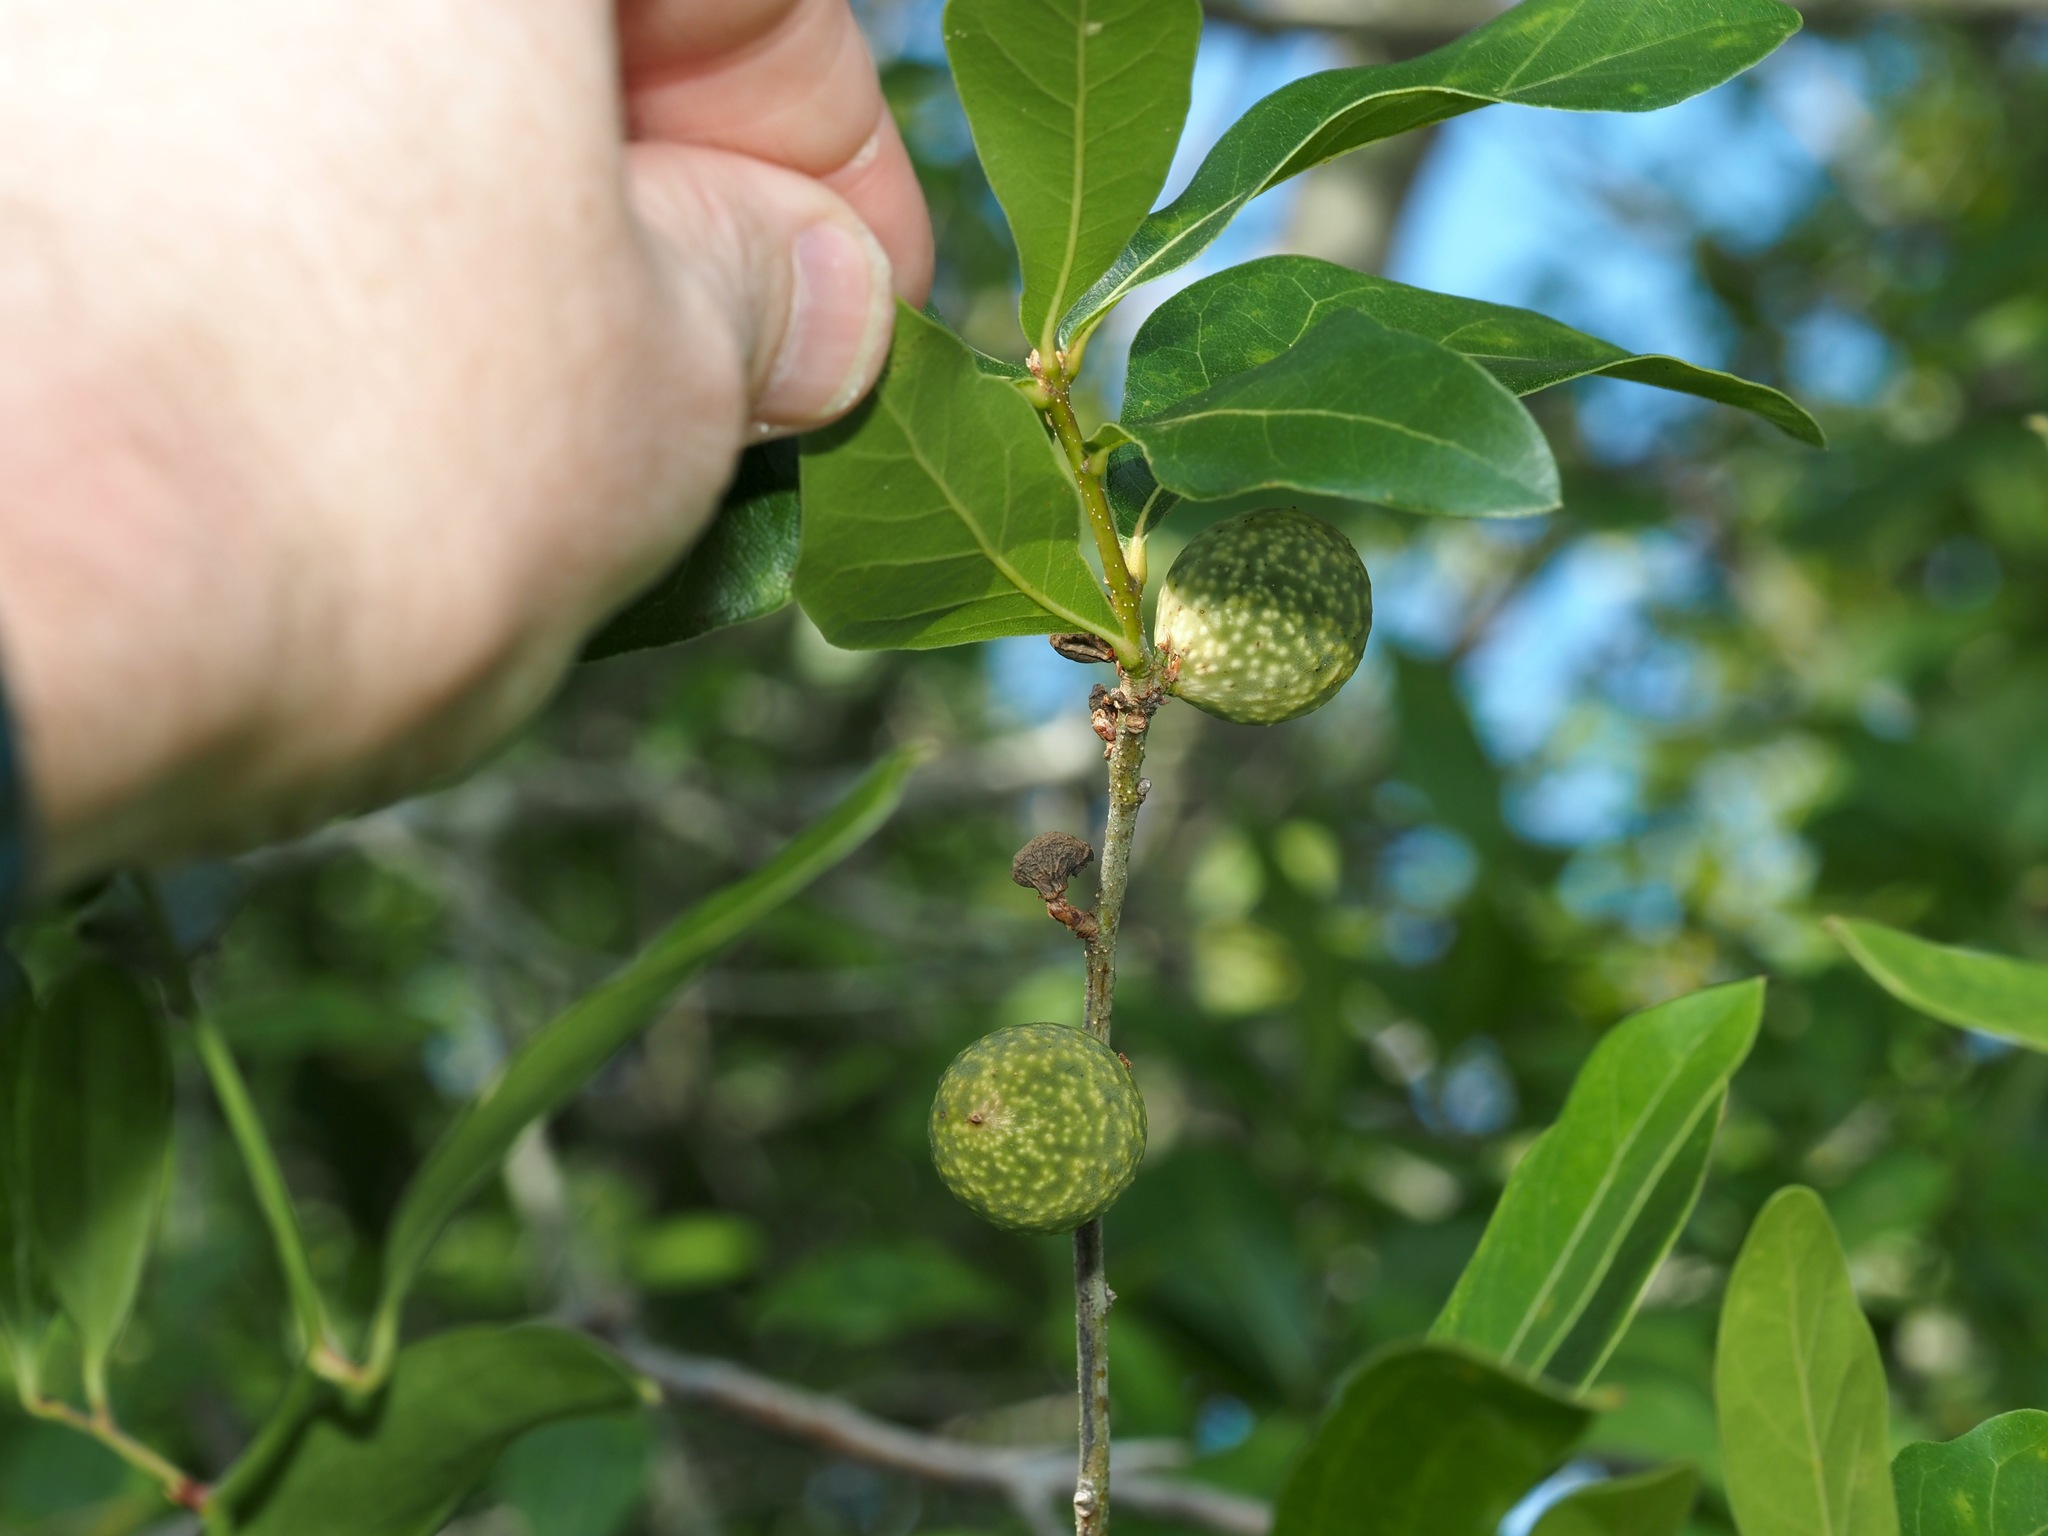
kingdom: Animalia
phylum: Arthropoda
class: Insecta
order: Hymenoptera
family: Cynipidae
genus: Amphibolips
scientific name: Amphibolips
